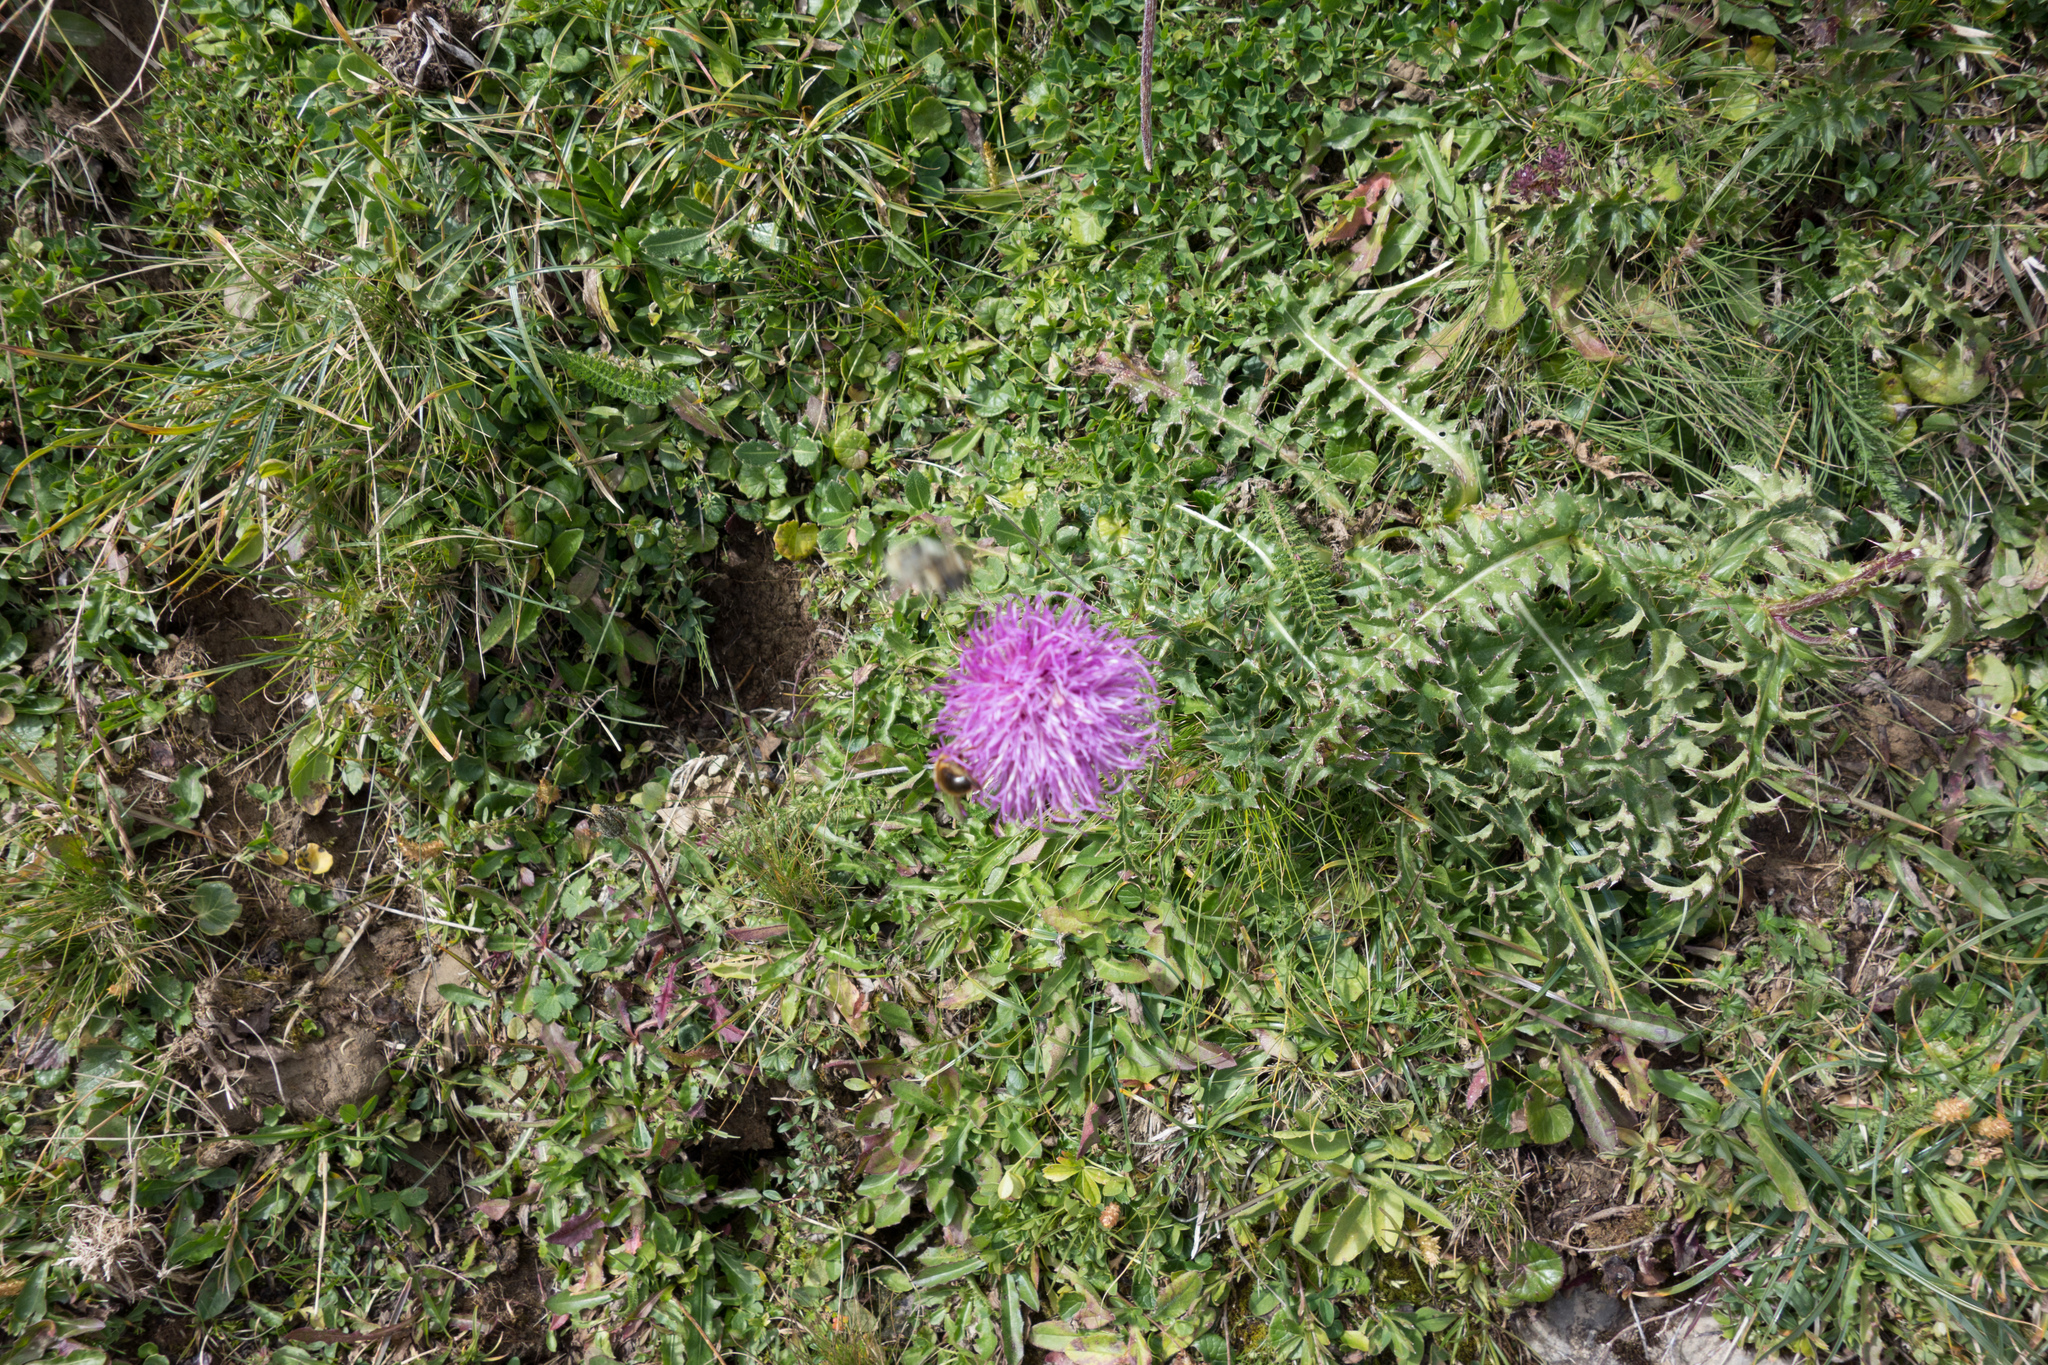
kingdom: Plantae
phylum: Tracheophyta
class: Magnoliopsida
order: Asterales
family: Asteraceae
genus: Cirsium
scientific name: Cirsium acaulon
